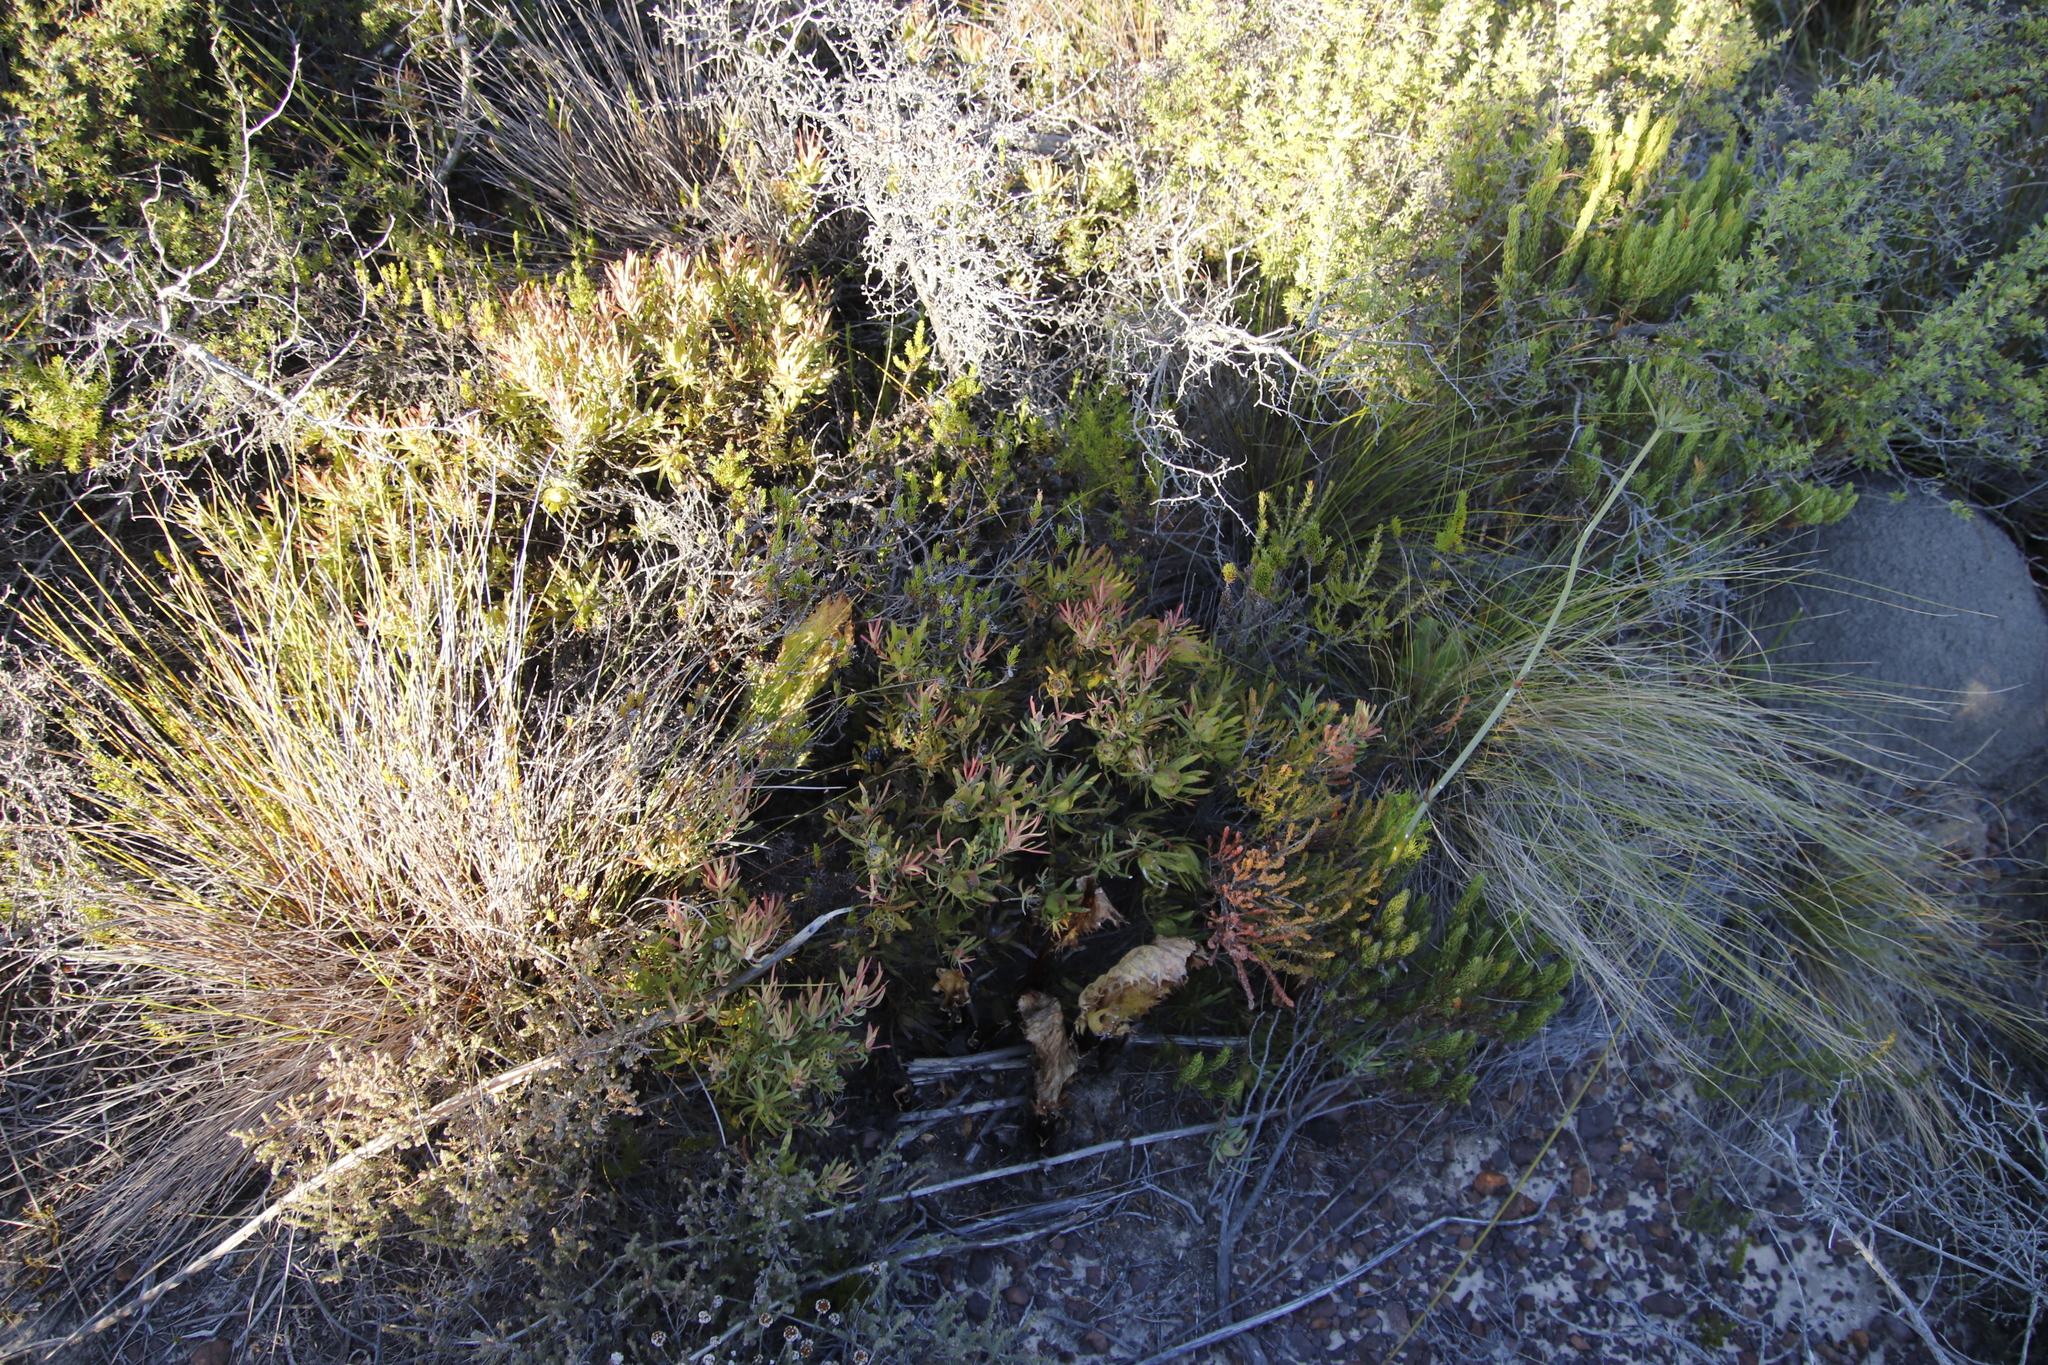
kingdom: Plantae
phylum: Tracheophyta
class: Magnoliopsida
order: Proteales
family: Proteaceae
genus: Leucadendron
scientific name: Leucadendron salignum
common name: Common sunshine conebush
